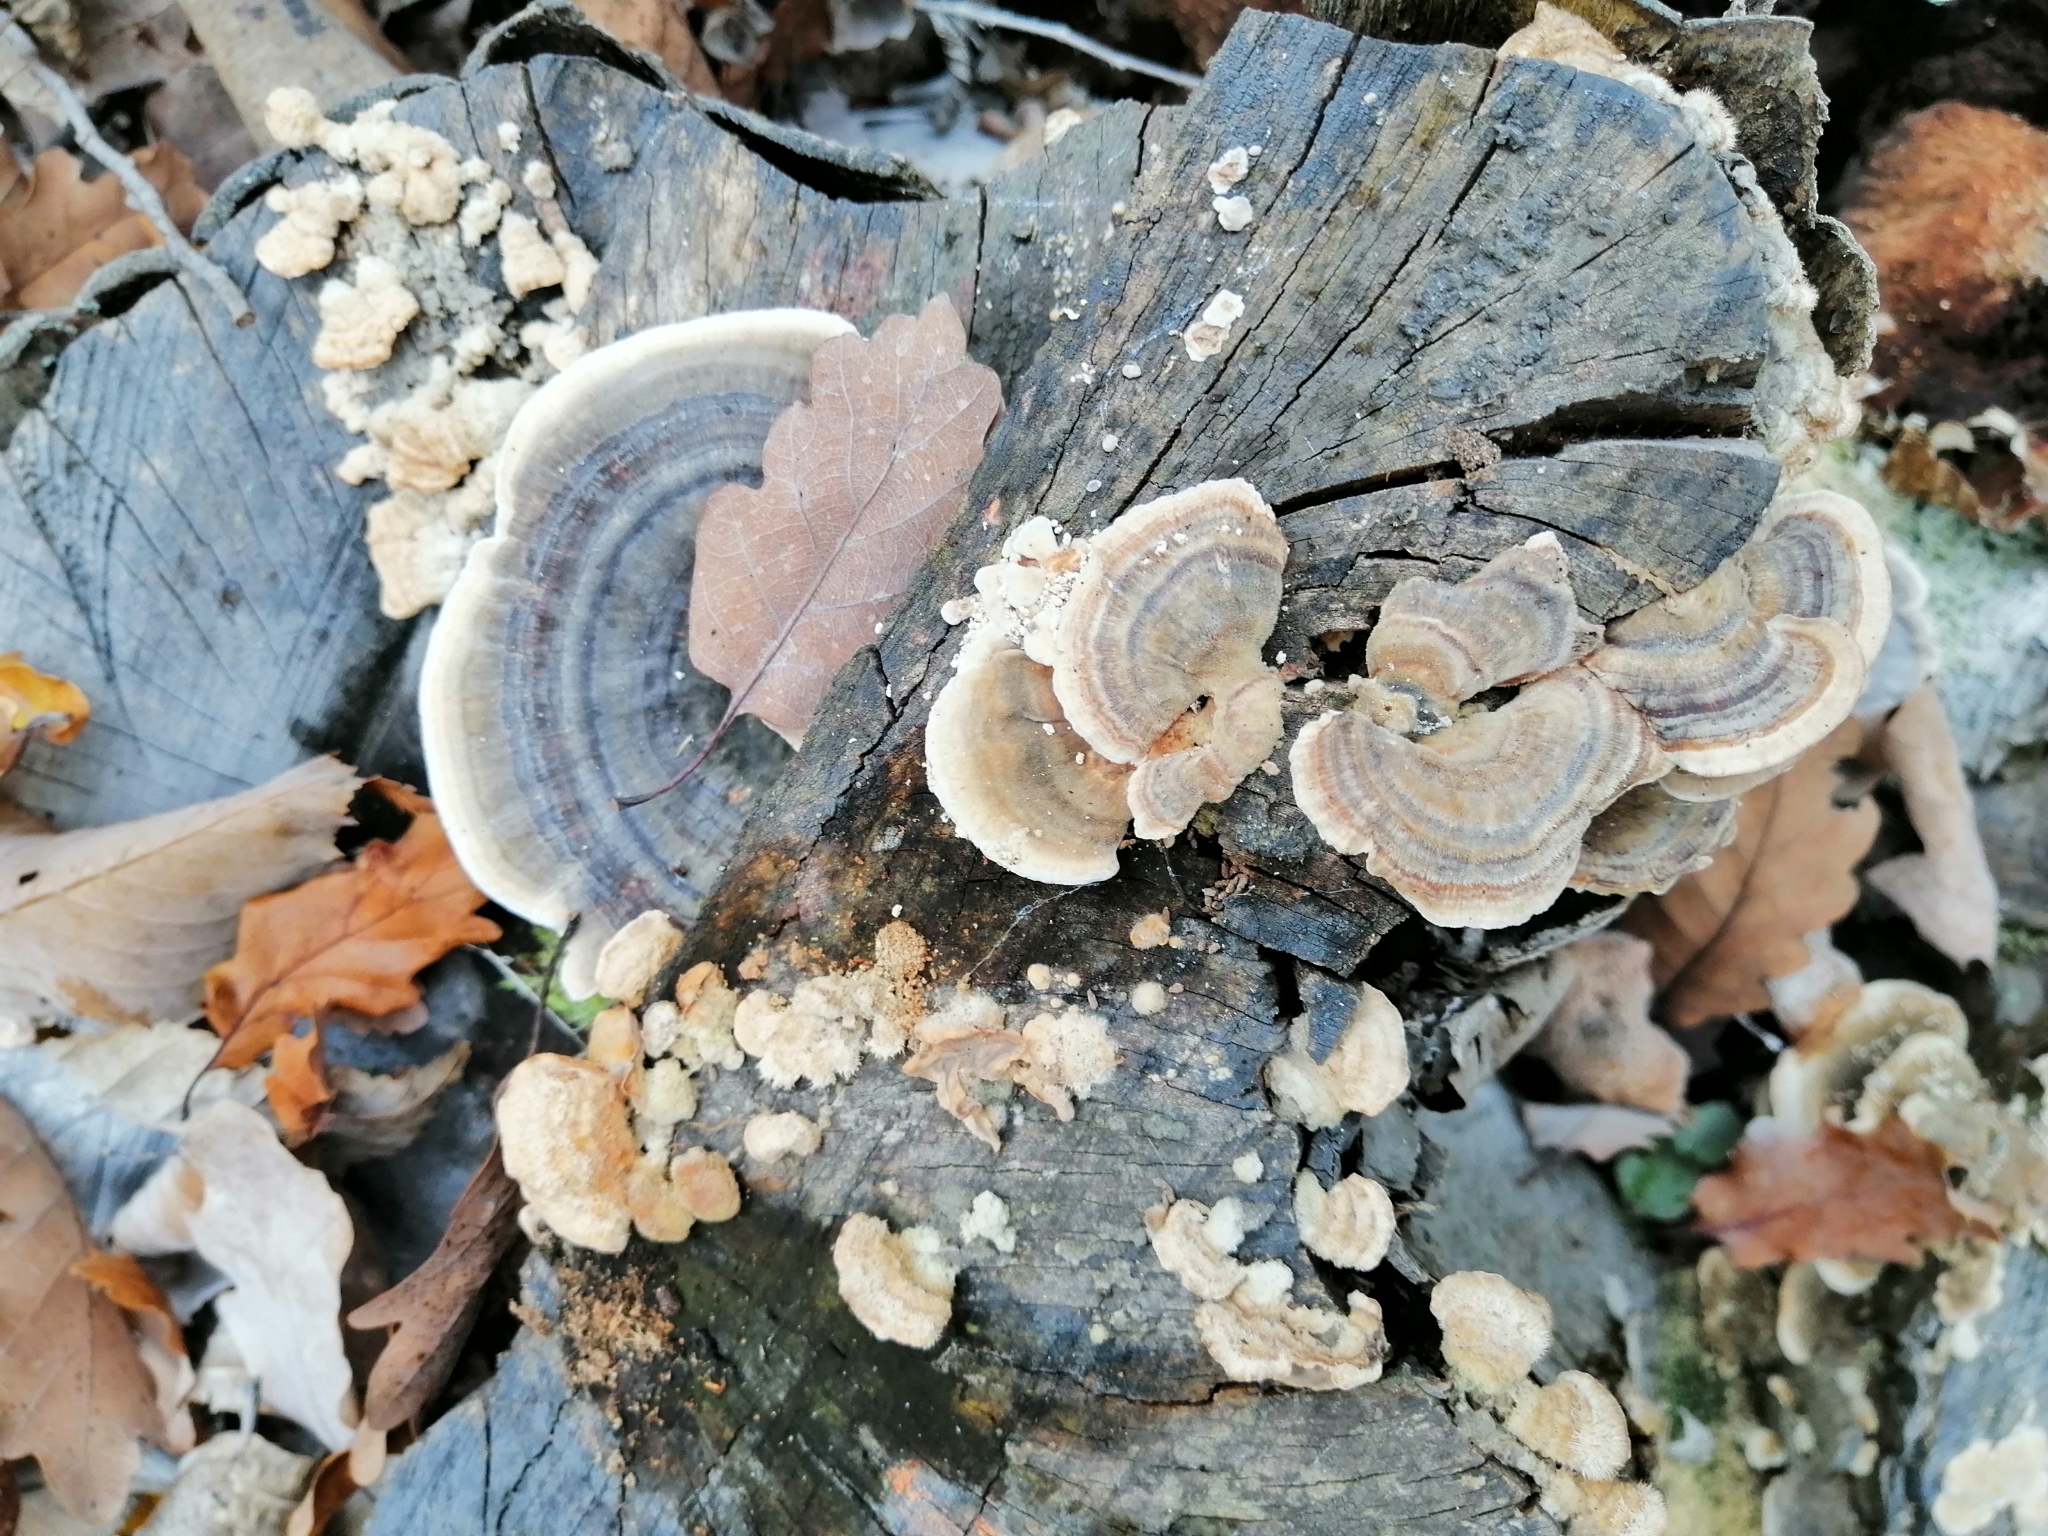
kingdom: Fungi
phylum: Basidiomycota
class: Agaricomycetes
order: Polyporales
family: Polyporaceae
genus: Trametes
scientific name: Trametes versicolor
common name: Turkeytail
